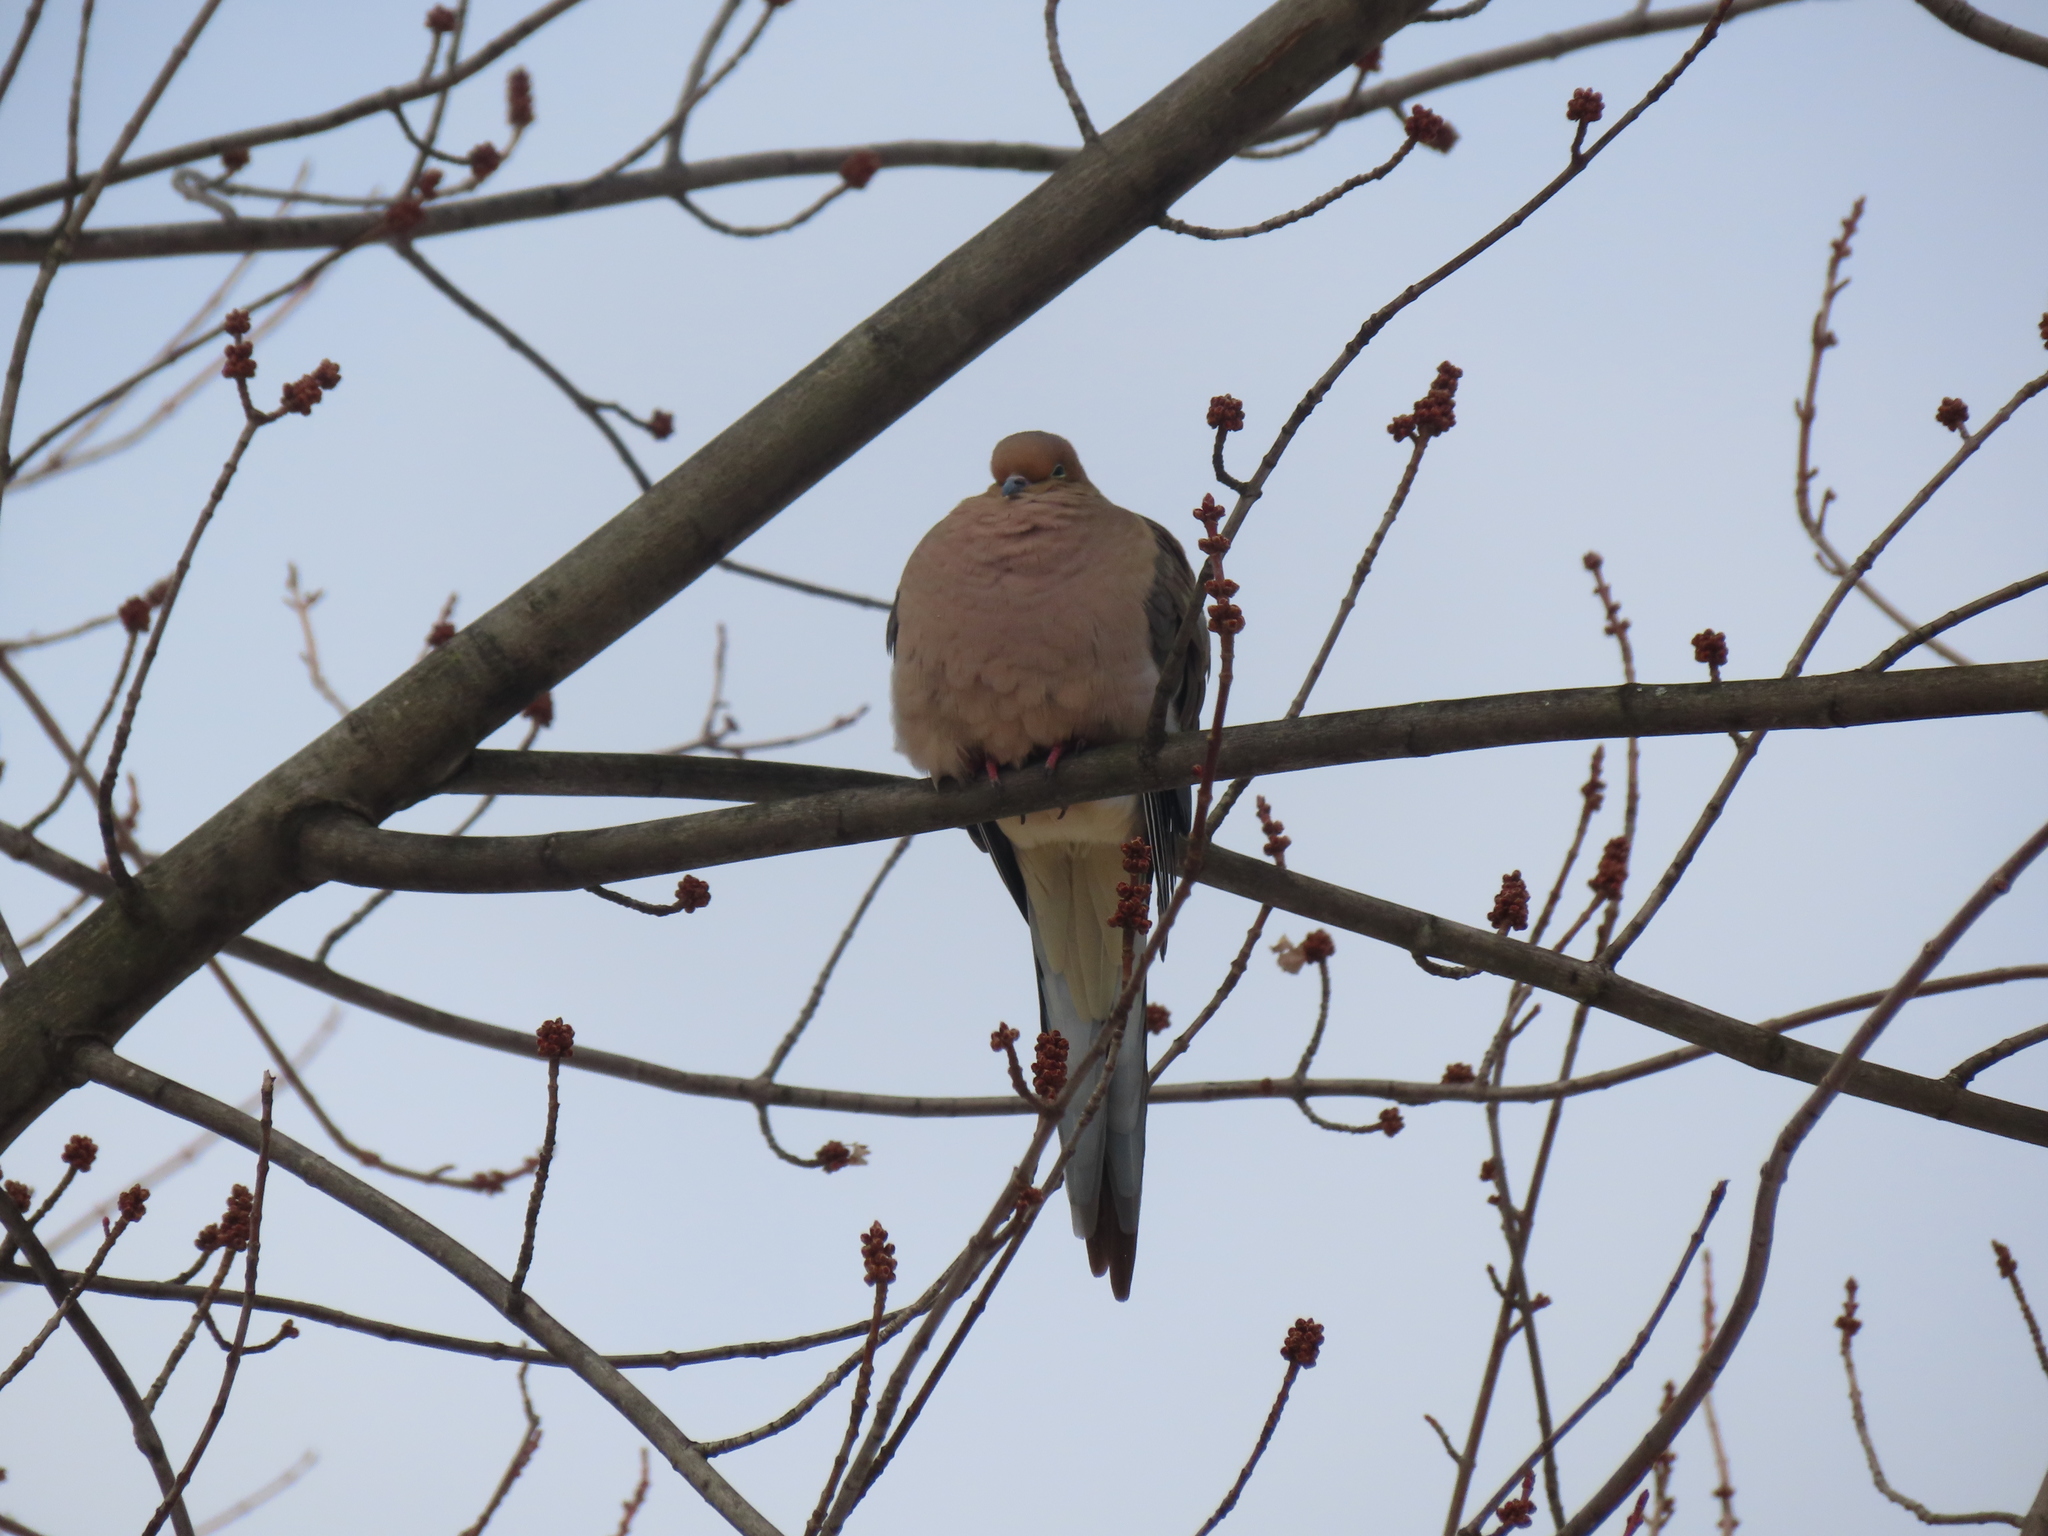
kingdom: Animalia
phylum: Chordata
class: Aves
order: Columbiformes
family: Columbidae
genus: Zenaida
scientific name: Zenaida macroura
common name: Mourning dove
